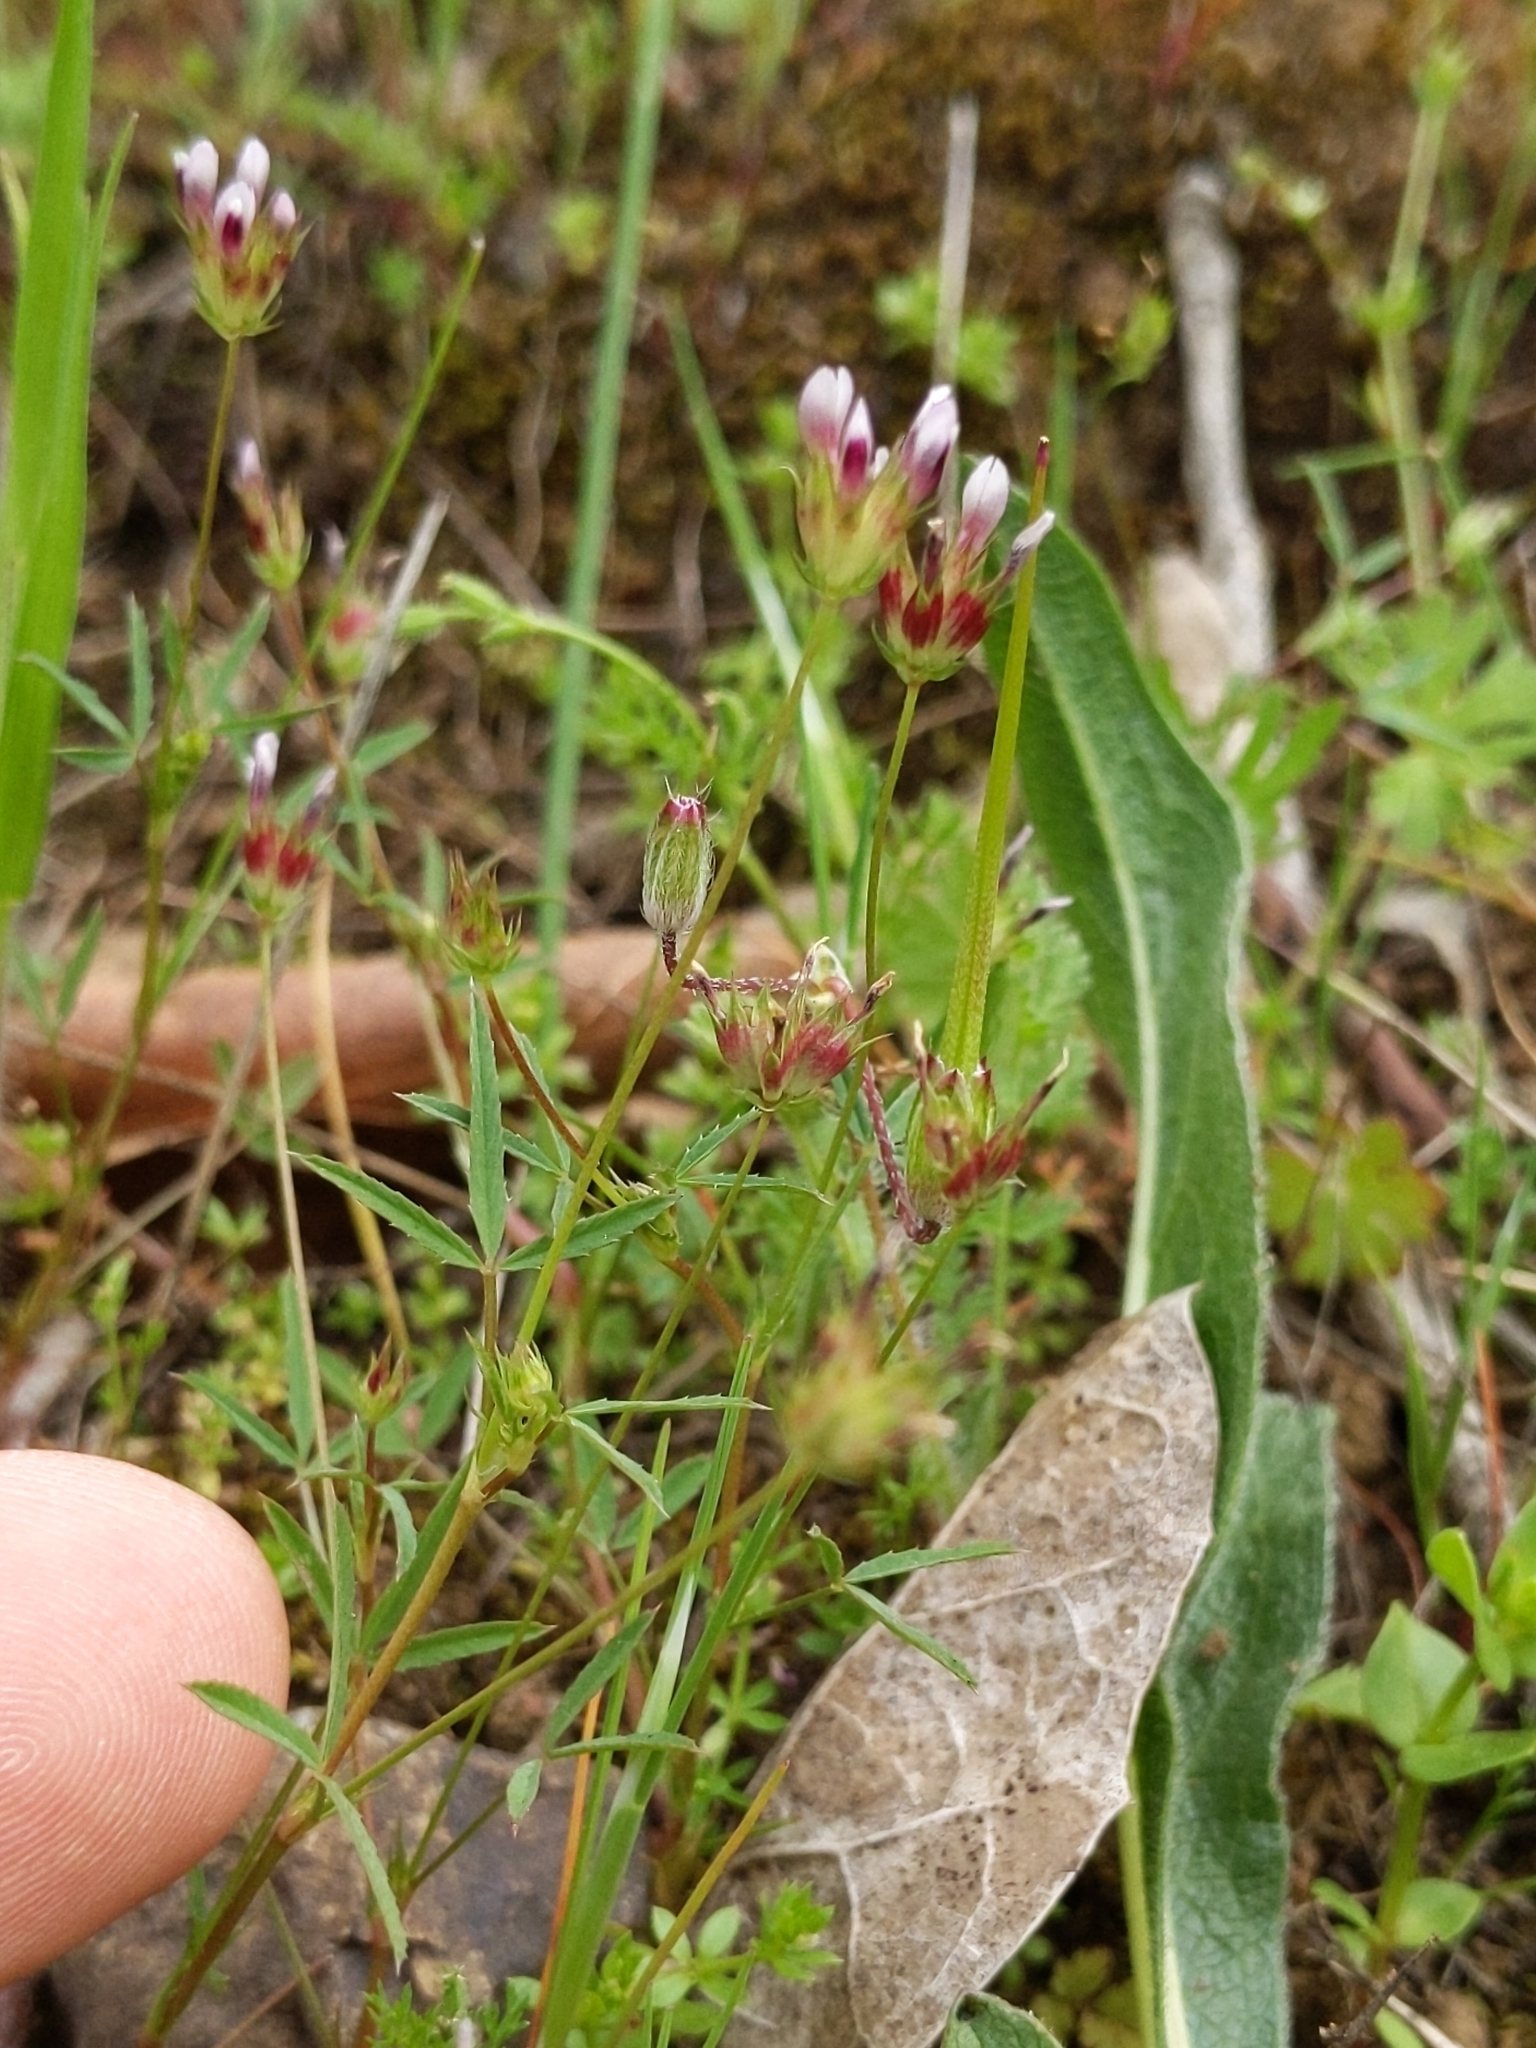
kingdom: Plantae
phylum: Tracheophyta
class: Magnoliopsida
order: Fabales
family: Fabaceae
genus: Trifolium
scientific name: Trifolium oliganthum
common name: Few-flower clover
